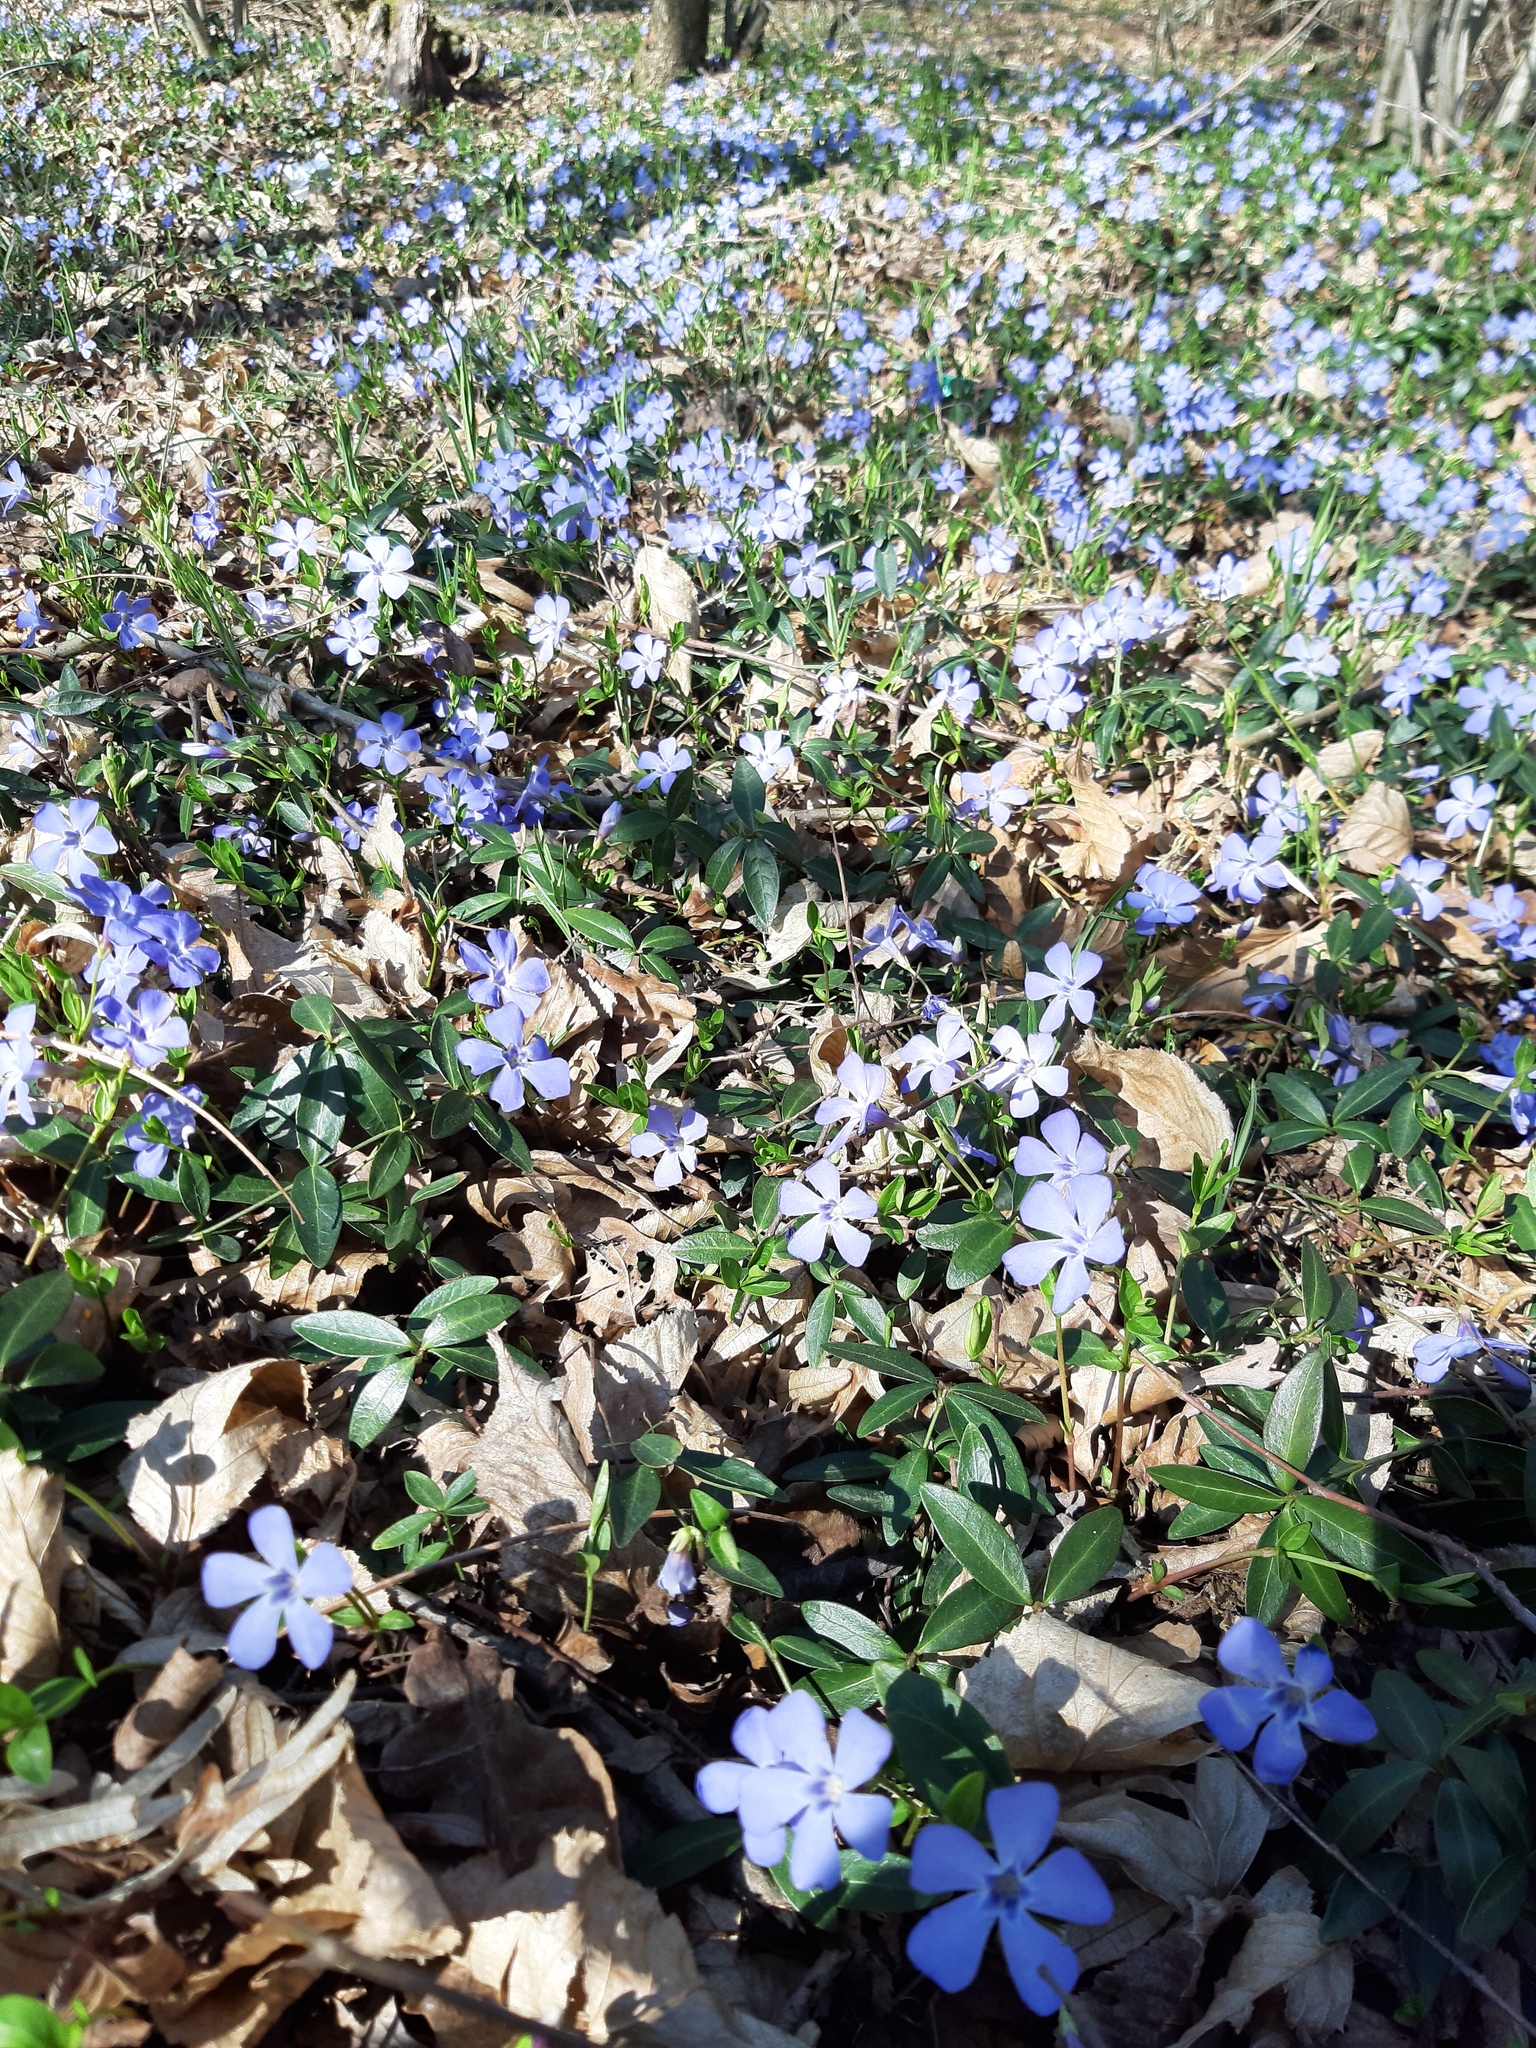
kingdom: Plantae
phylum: Tracheophyta
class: Magnoliopsida
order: Gentianales
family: Apocynaceae
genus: Vinca
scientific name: Vinca minor
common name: Lesser periwinkle
